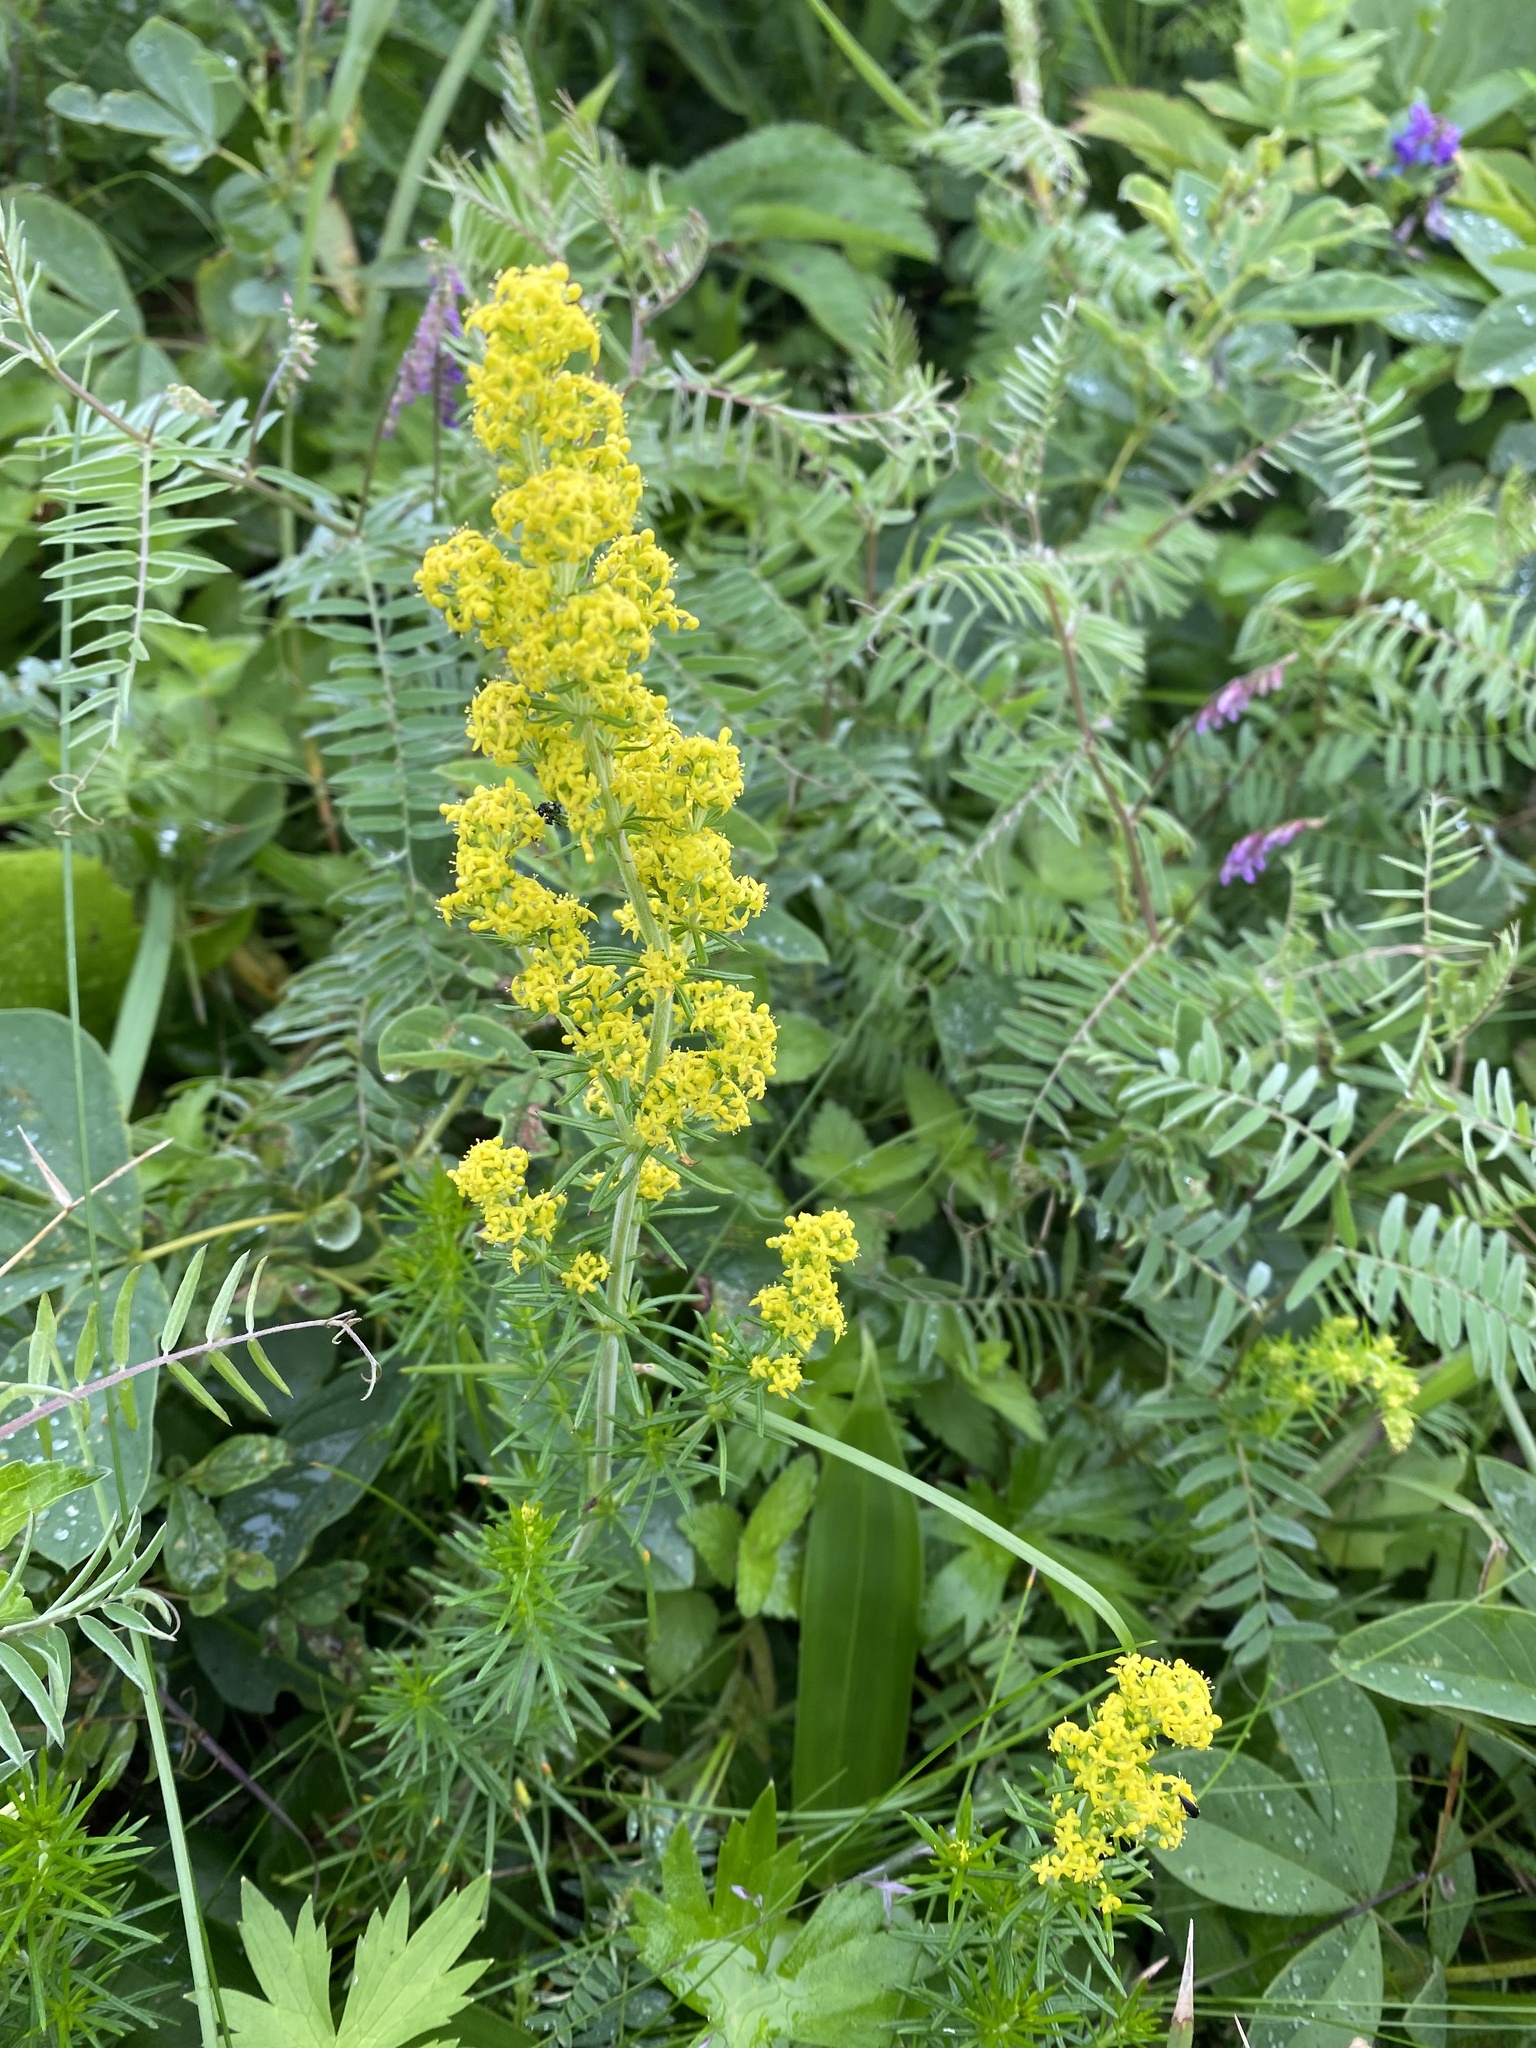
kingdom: Plantae
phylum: Tracheophyta
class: Magnoliopsida
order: Gentianales
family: Rubiaceae
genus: Galium
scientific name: Galium verum
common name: Lady's bedstraw
